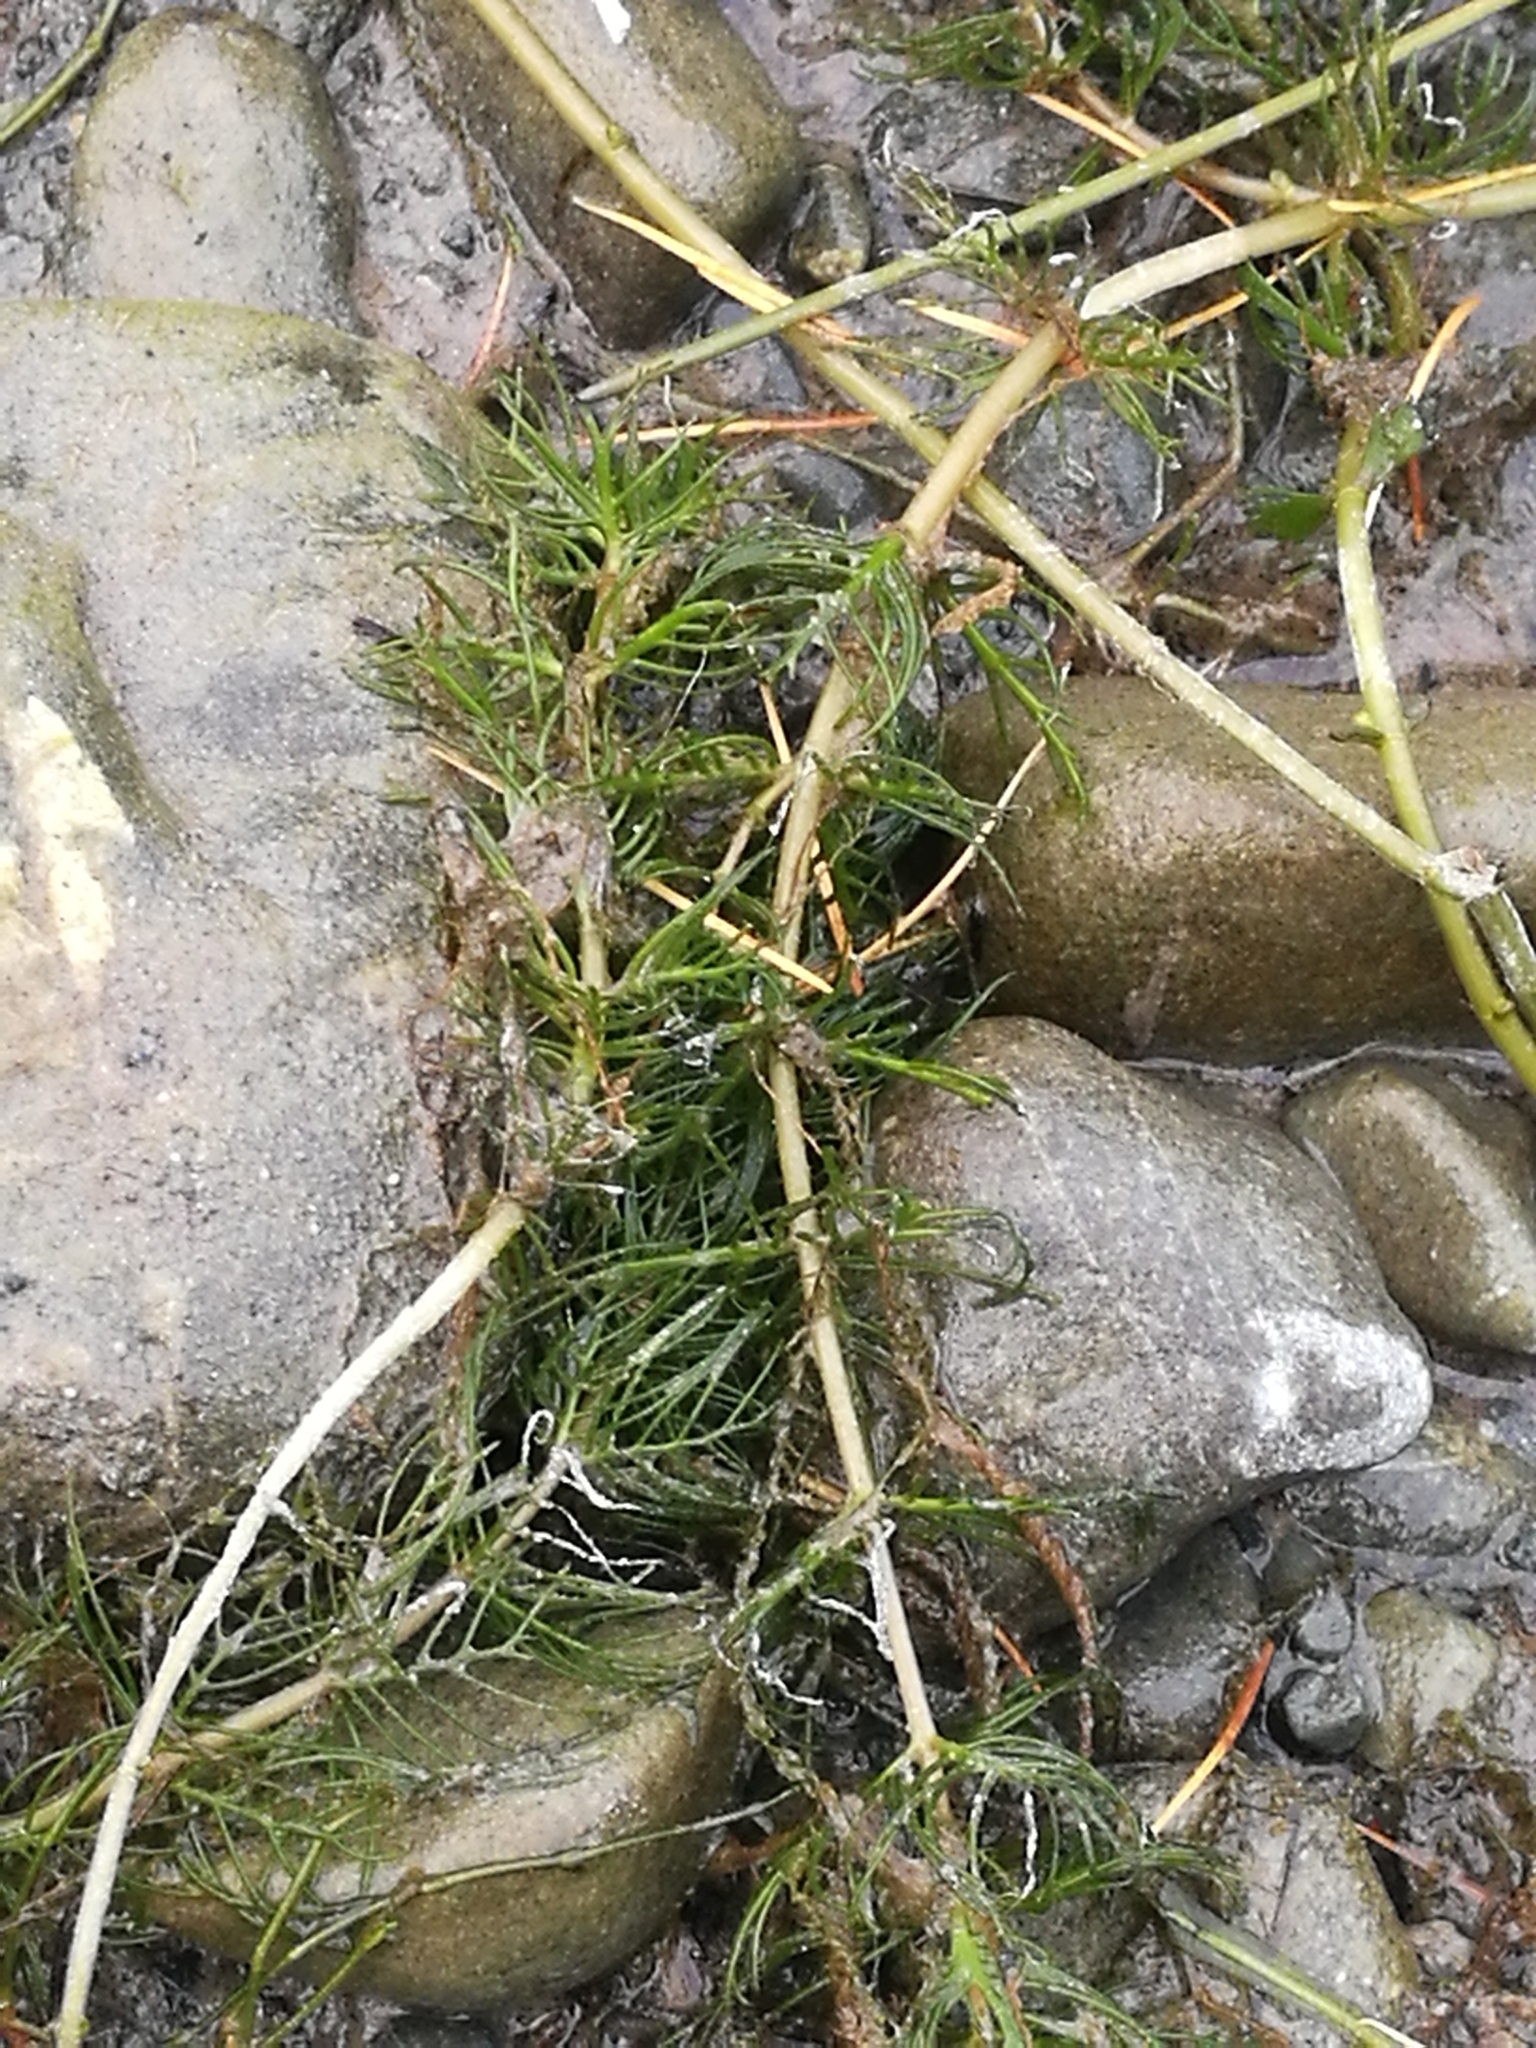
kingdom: Plantae
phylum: Tracheophyta
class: Magnoliopsida
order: Saxifragales
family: Haloragaceae
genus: Myriophyllum
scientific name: Myriophyllum triphyllum
